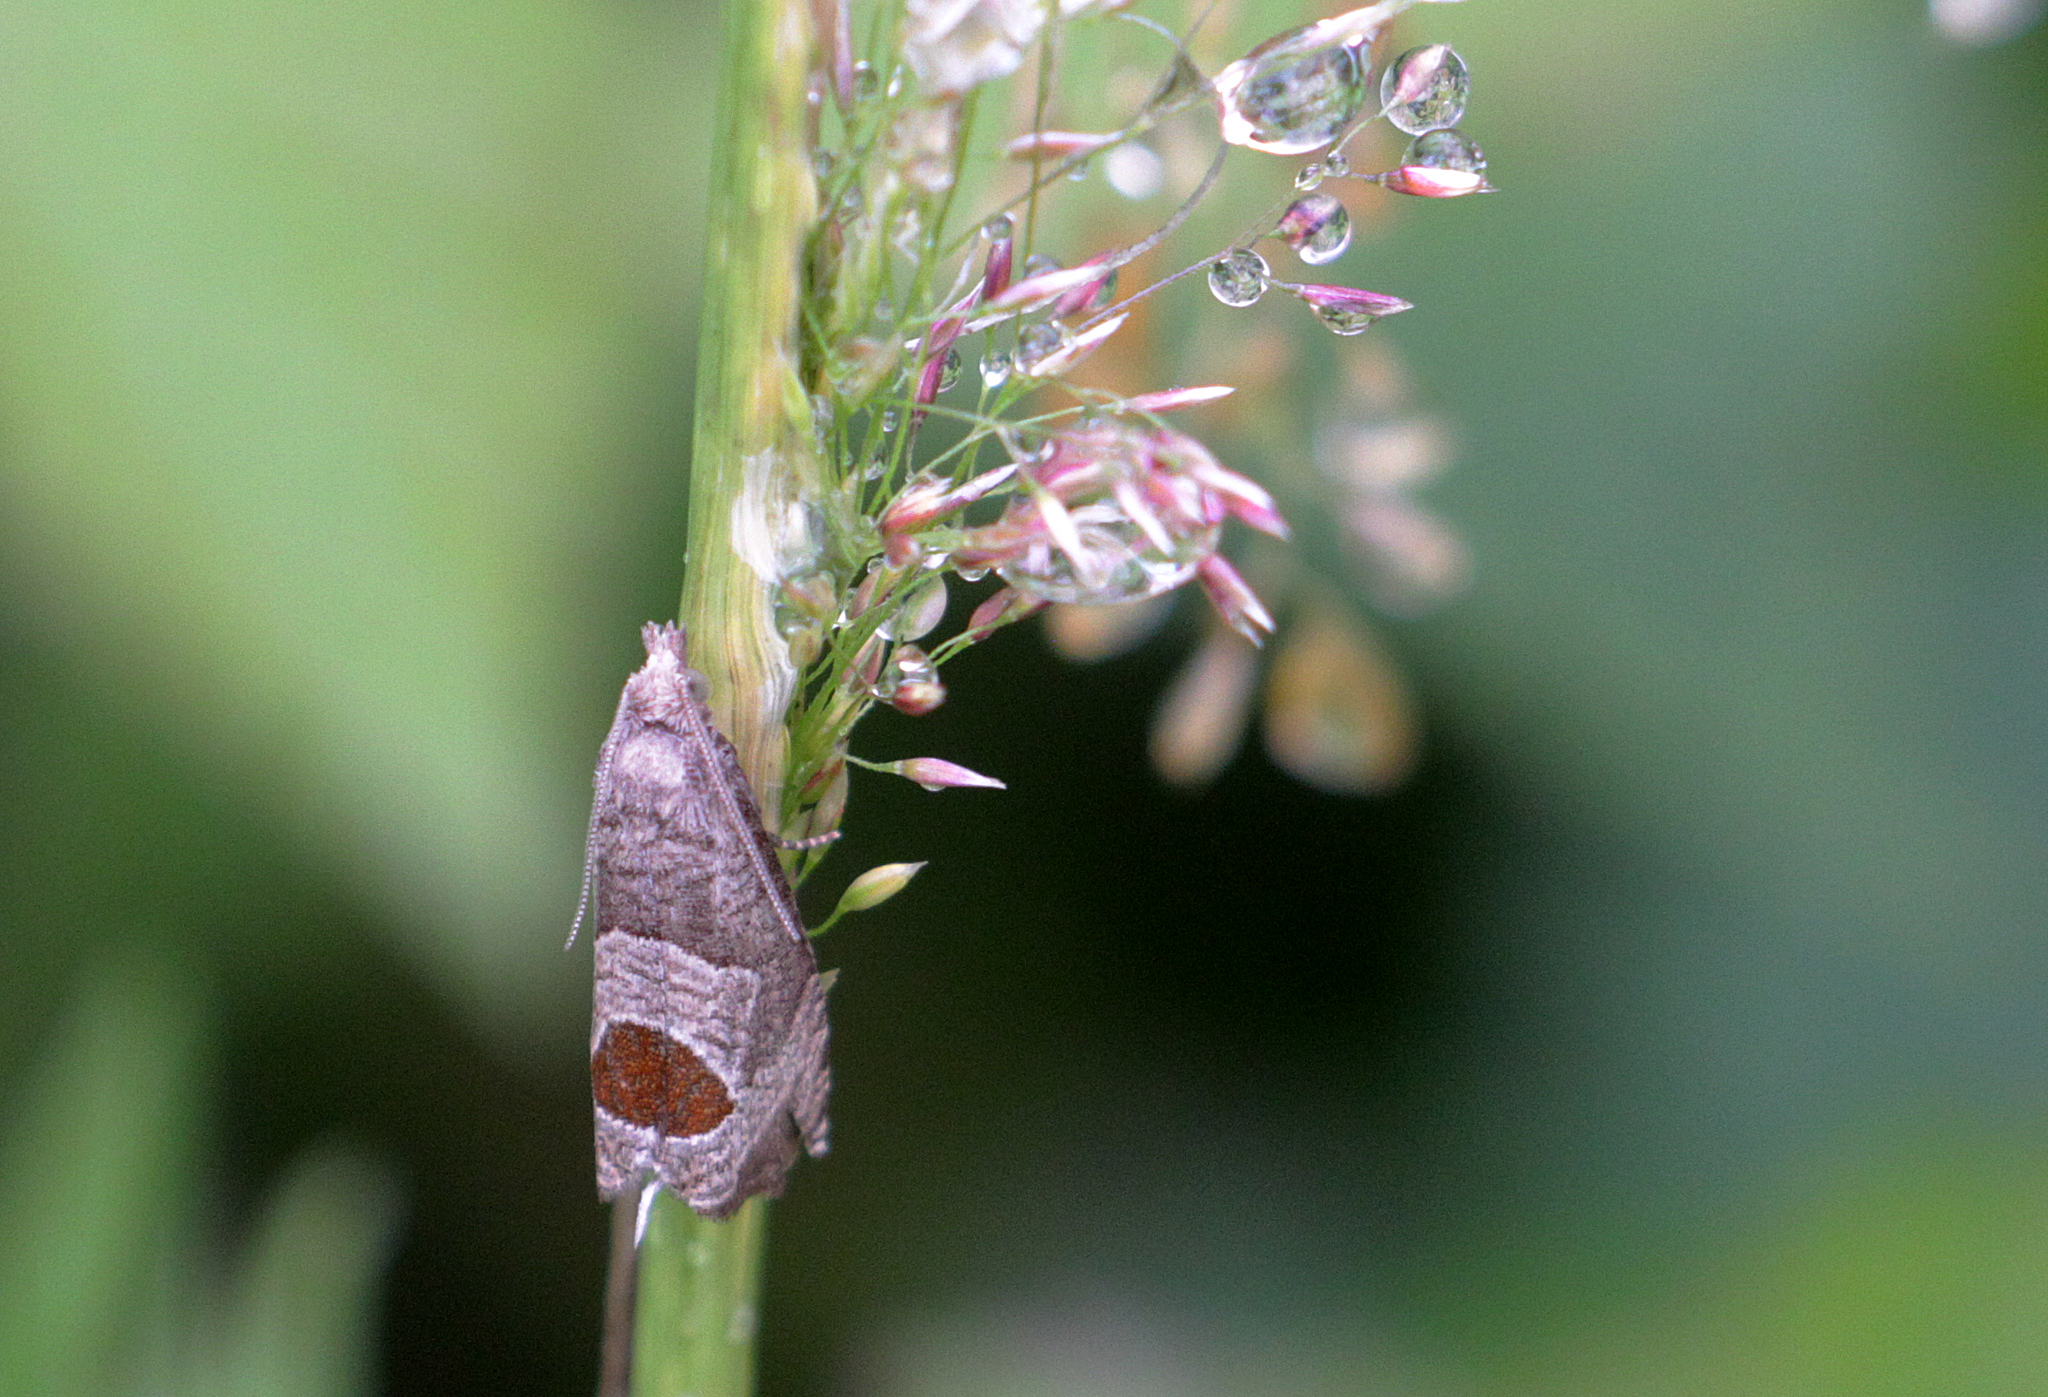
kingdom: Animalia
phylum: Arthropoda
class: Insecta
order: Lepidoptera
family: Tortricidae
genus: Notocelia
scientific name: Notocelia uddmanniana
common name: Bramble shoot moth
